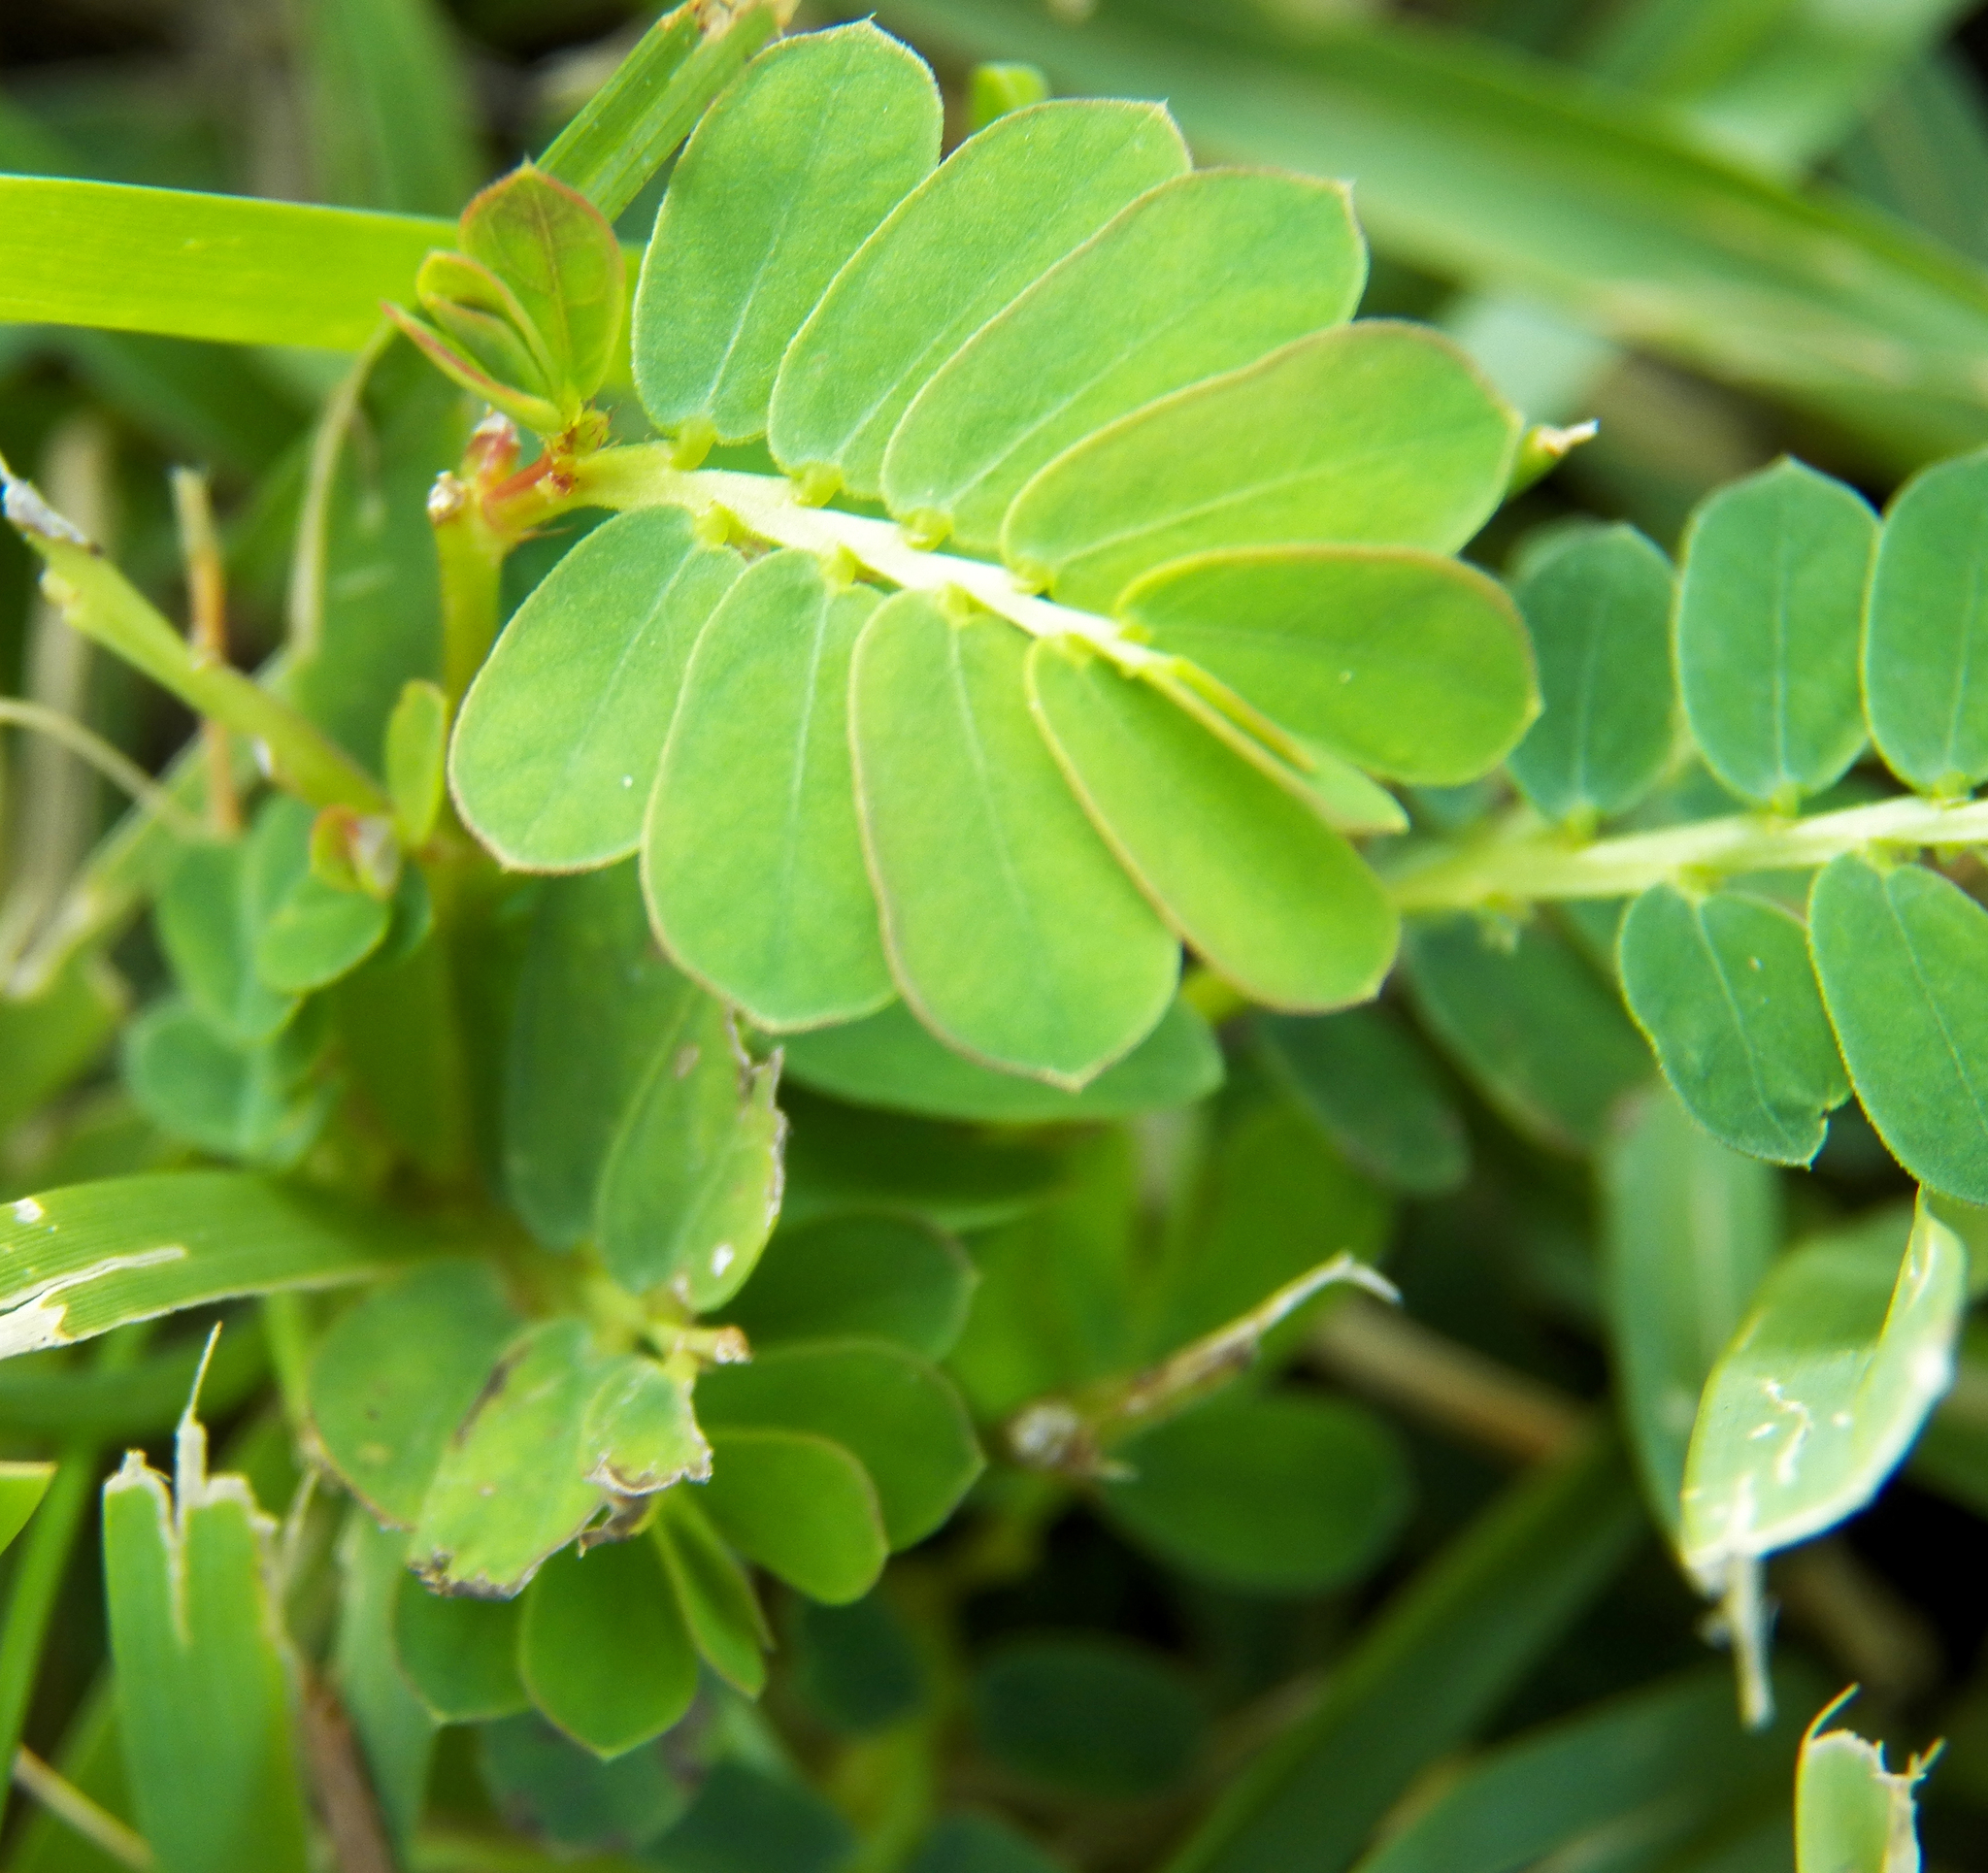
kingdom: Plantae
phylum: Tracheophyta
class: Magnoliopsida
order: Malpighiales
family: Phyllanthaceae
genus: Phyllanthus
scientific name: Phyllanthus urinaria
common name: Chamber bitter
